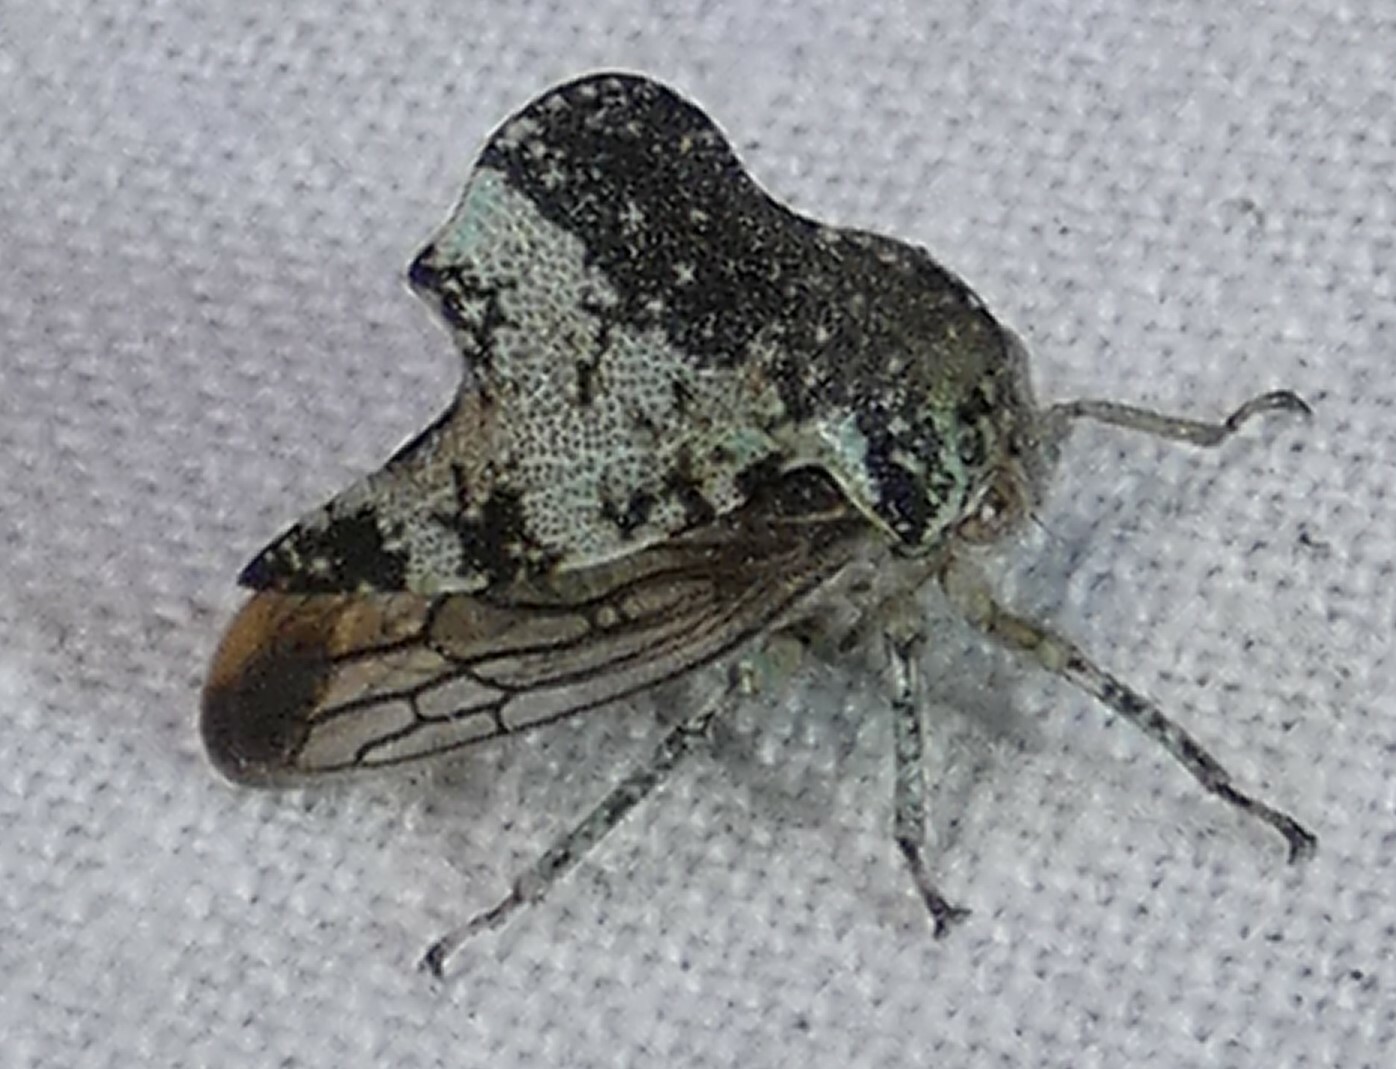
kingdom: Animalia
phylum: Arthropoda
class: Insecta
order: Hemiptera
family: Membracidae
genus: Telamona
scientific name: Telamona concava
